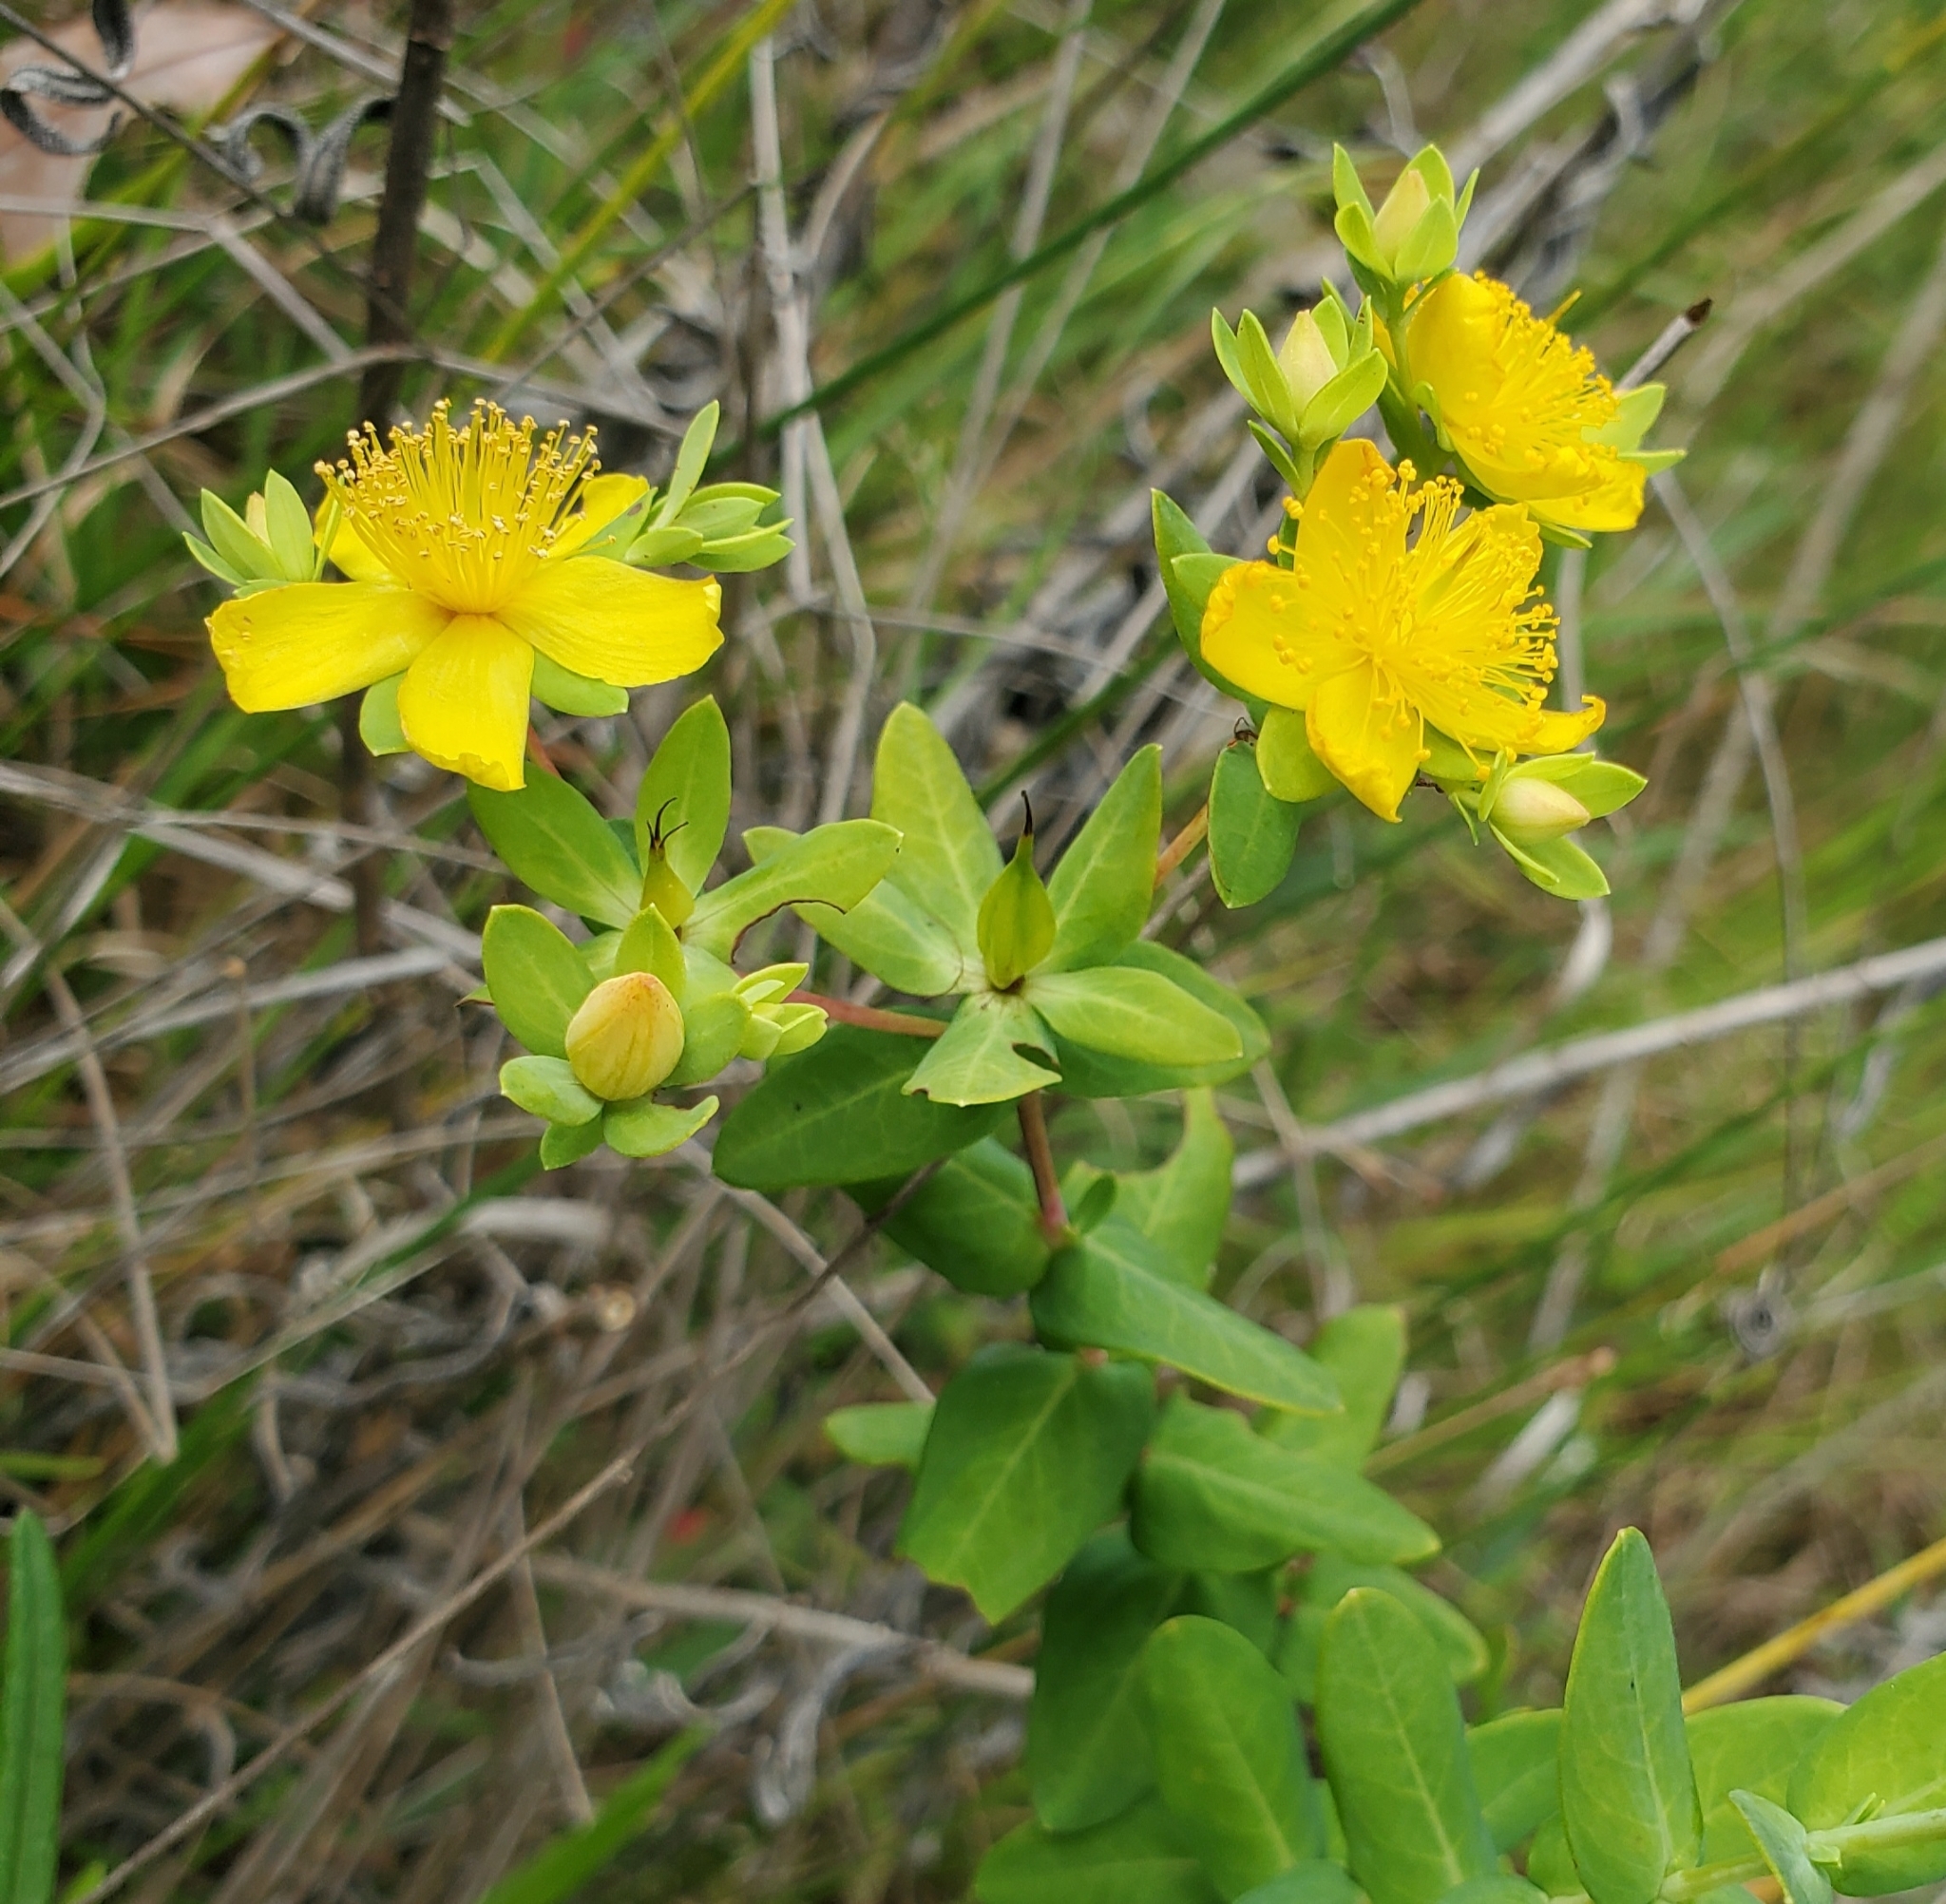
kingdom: Plantae
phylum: Tracheophyta
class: Magnoliopsida
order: Malpighiales
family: Hypericaceae
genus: Hypericum
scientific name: Hypericum myrtifolium
